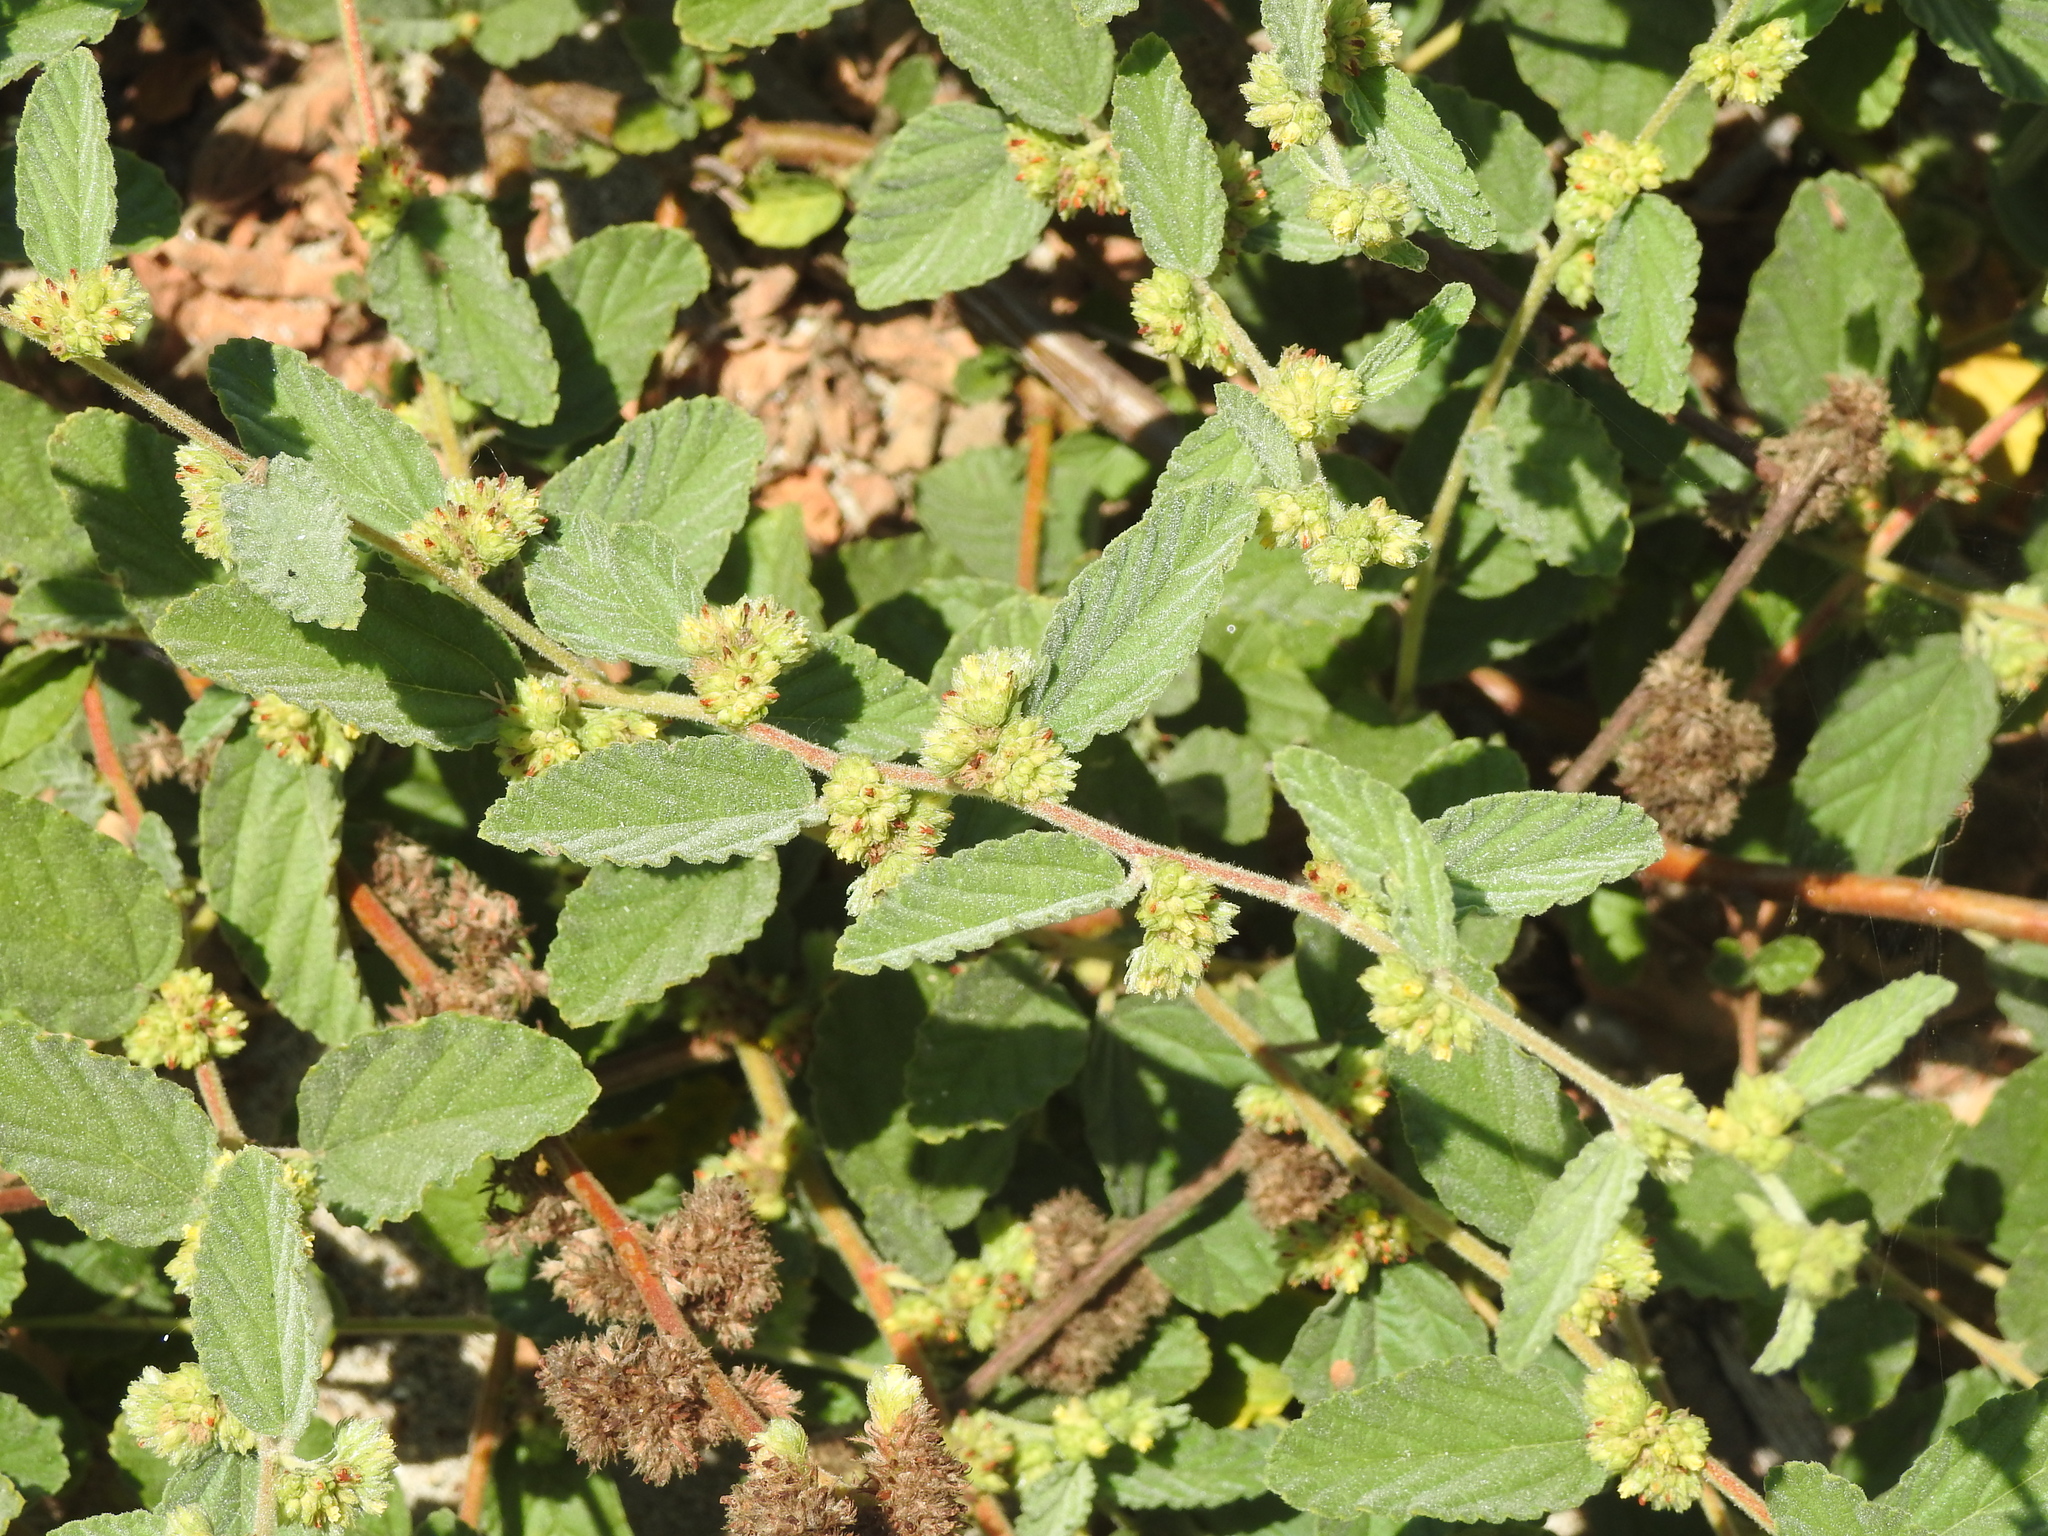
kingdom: Plantae
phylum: Tracheophyta
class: Magnoliopsida
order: Malvales
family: Malvaceae
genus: Waltheria
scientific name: Waltheria indica
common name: Leather-coat
